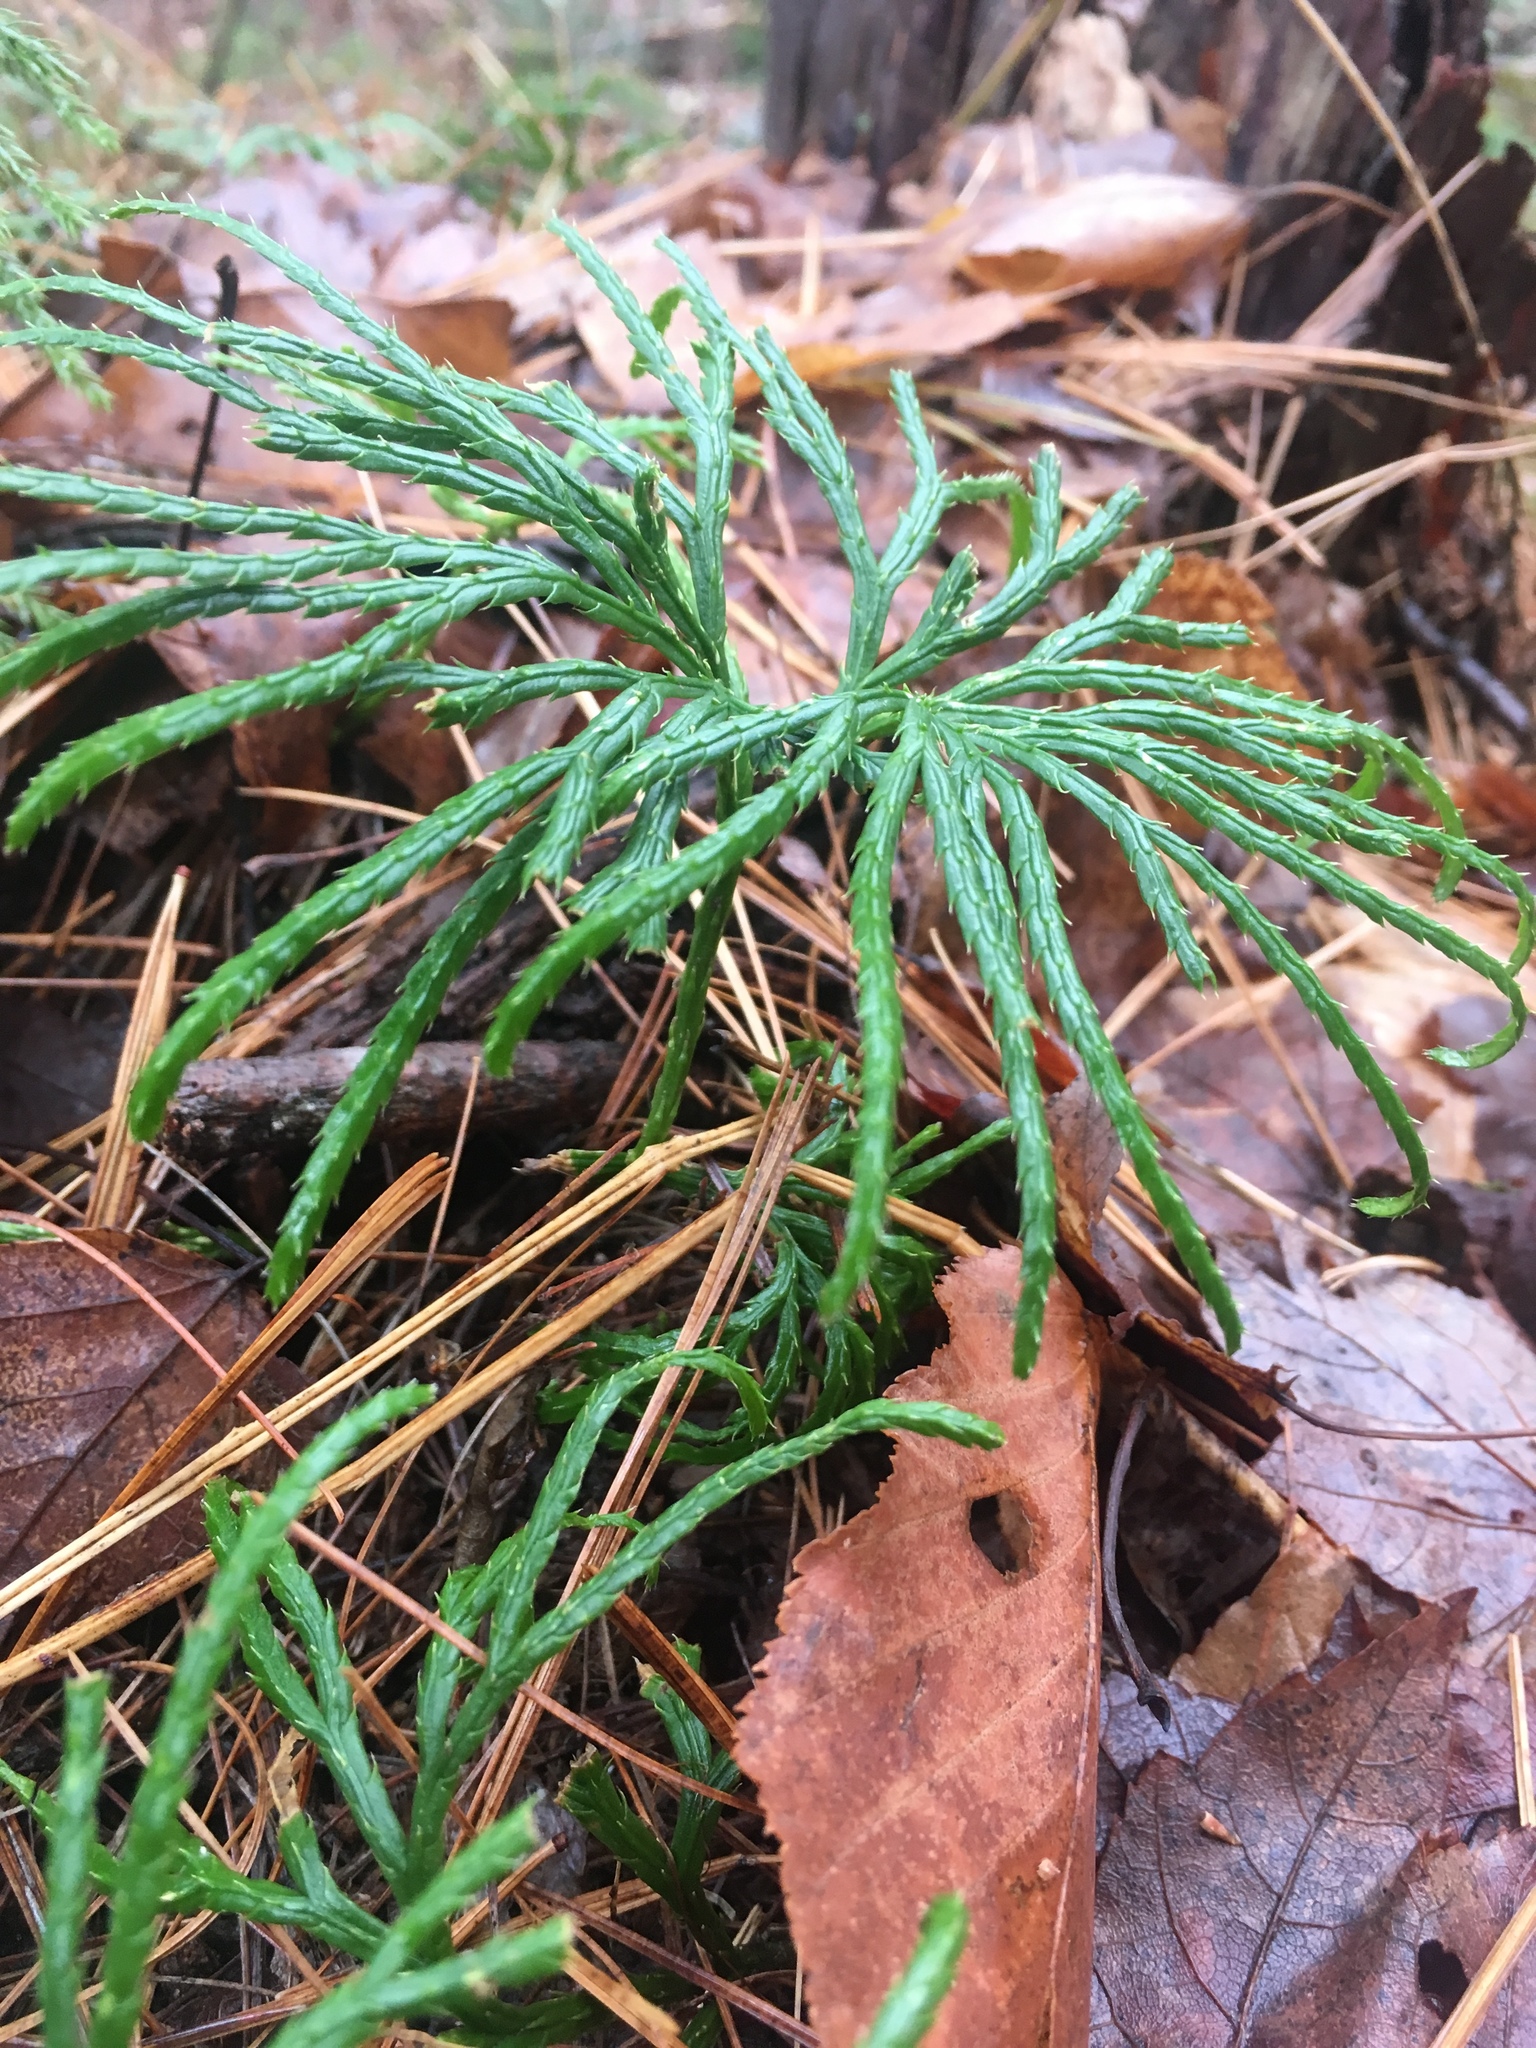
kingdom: Plantae
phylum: Tracheophyta
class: Lycopodiopsida
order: Lycopodiales
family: Lycopodiaceae
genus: Diphasiastrum
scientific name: Diphasiastrum digitatum
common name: Southern running-pine
